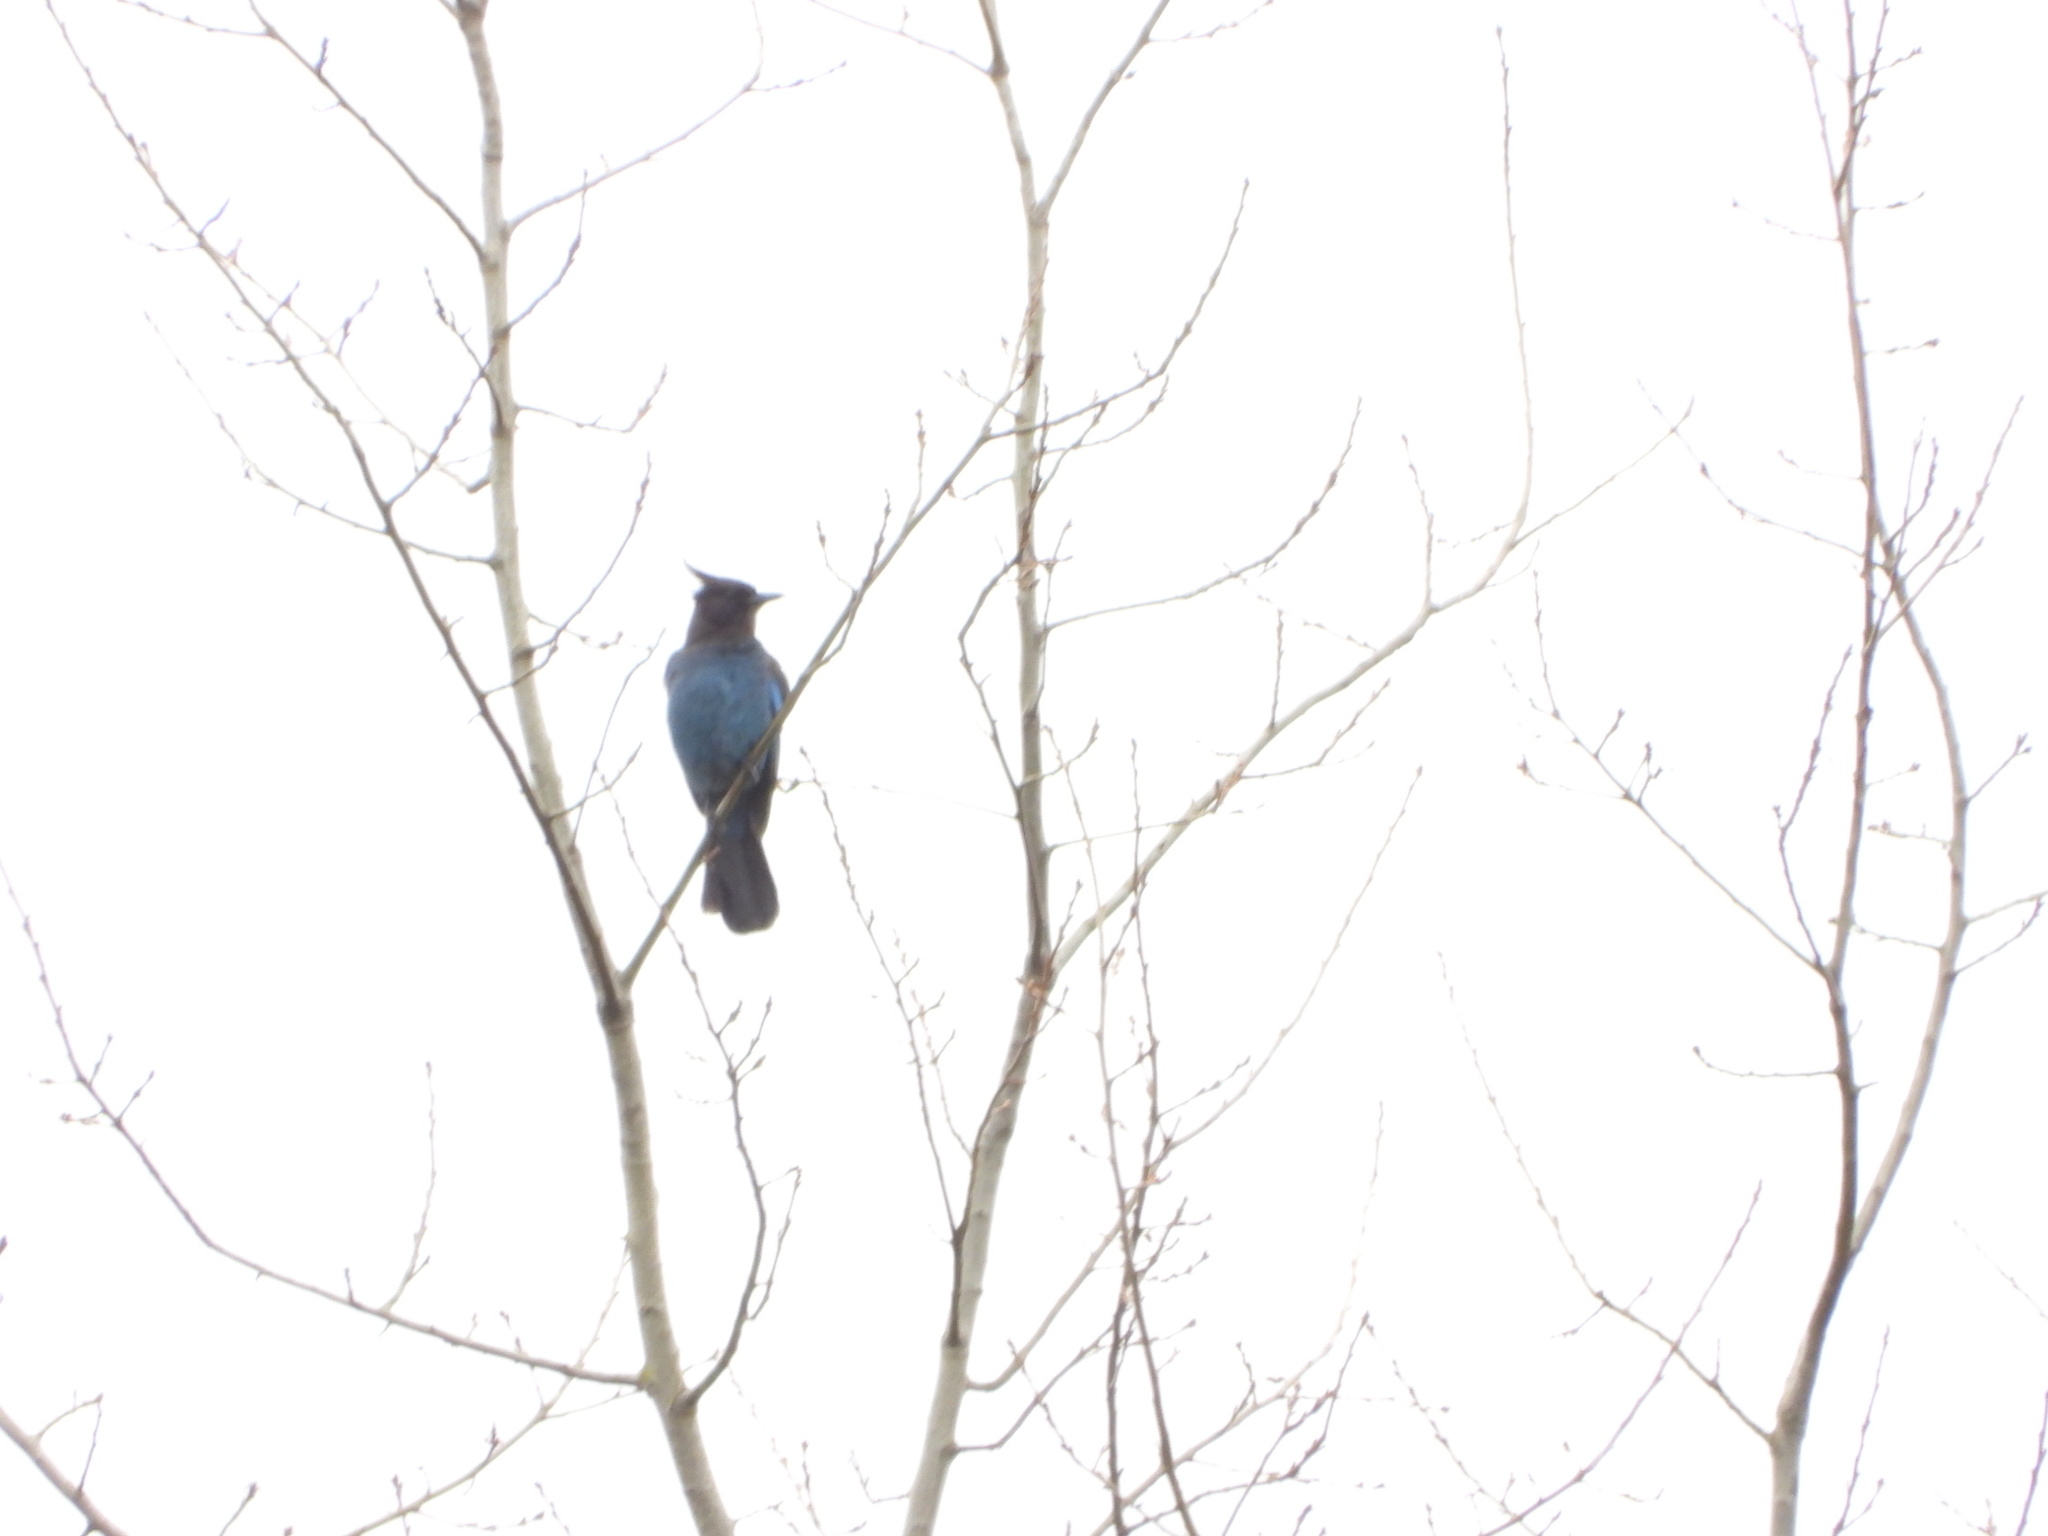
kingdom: Animalia
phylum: Chordata
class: Aves
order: Passeriformes
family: Corvidae
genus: Cyanocitta
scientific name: Cyanocitta stelleri
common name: Steller's jay
